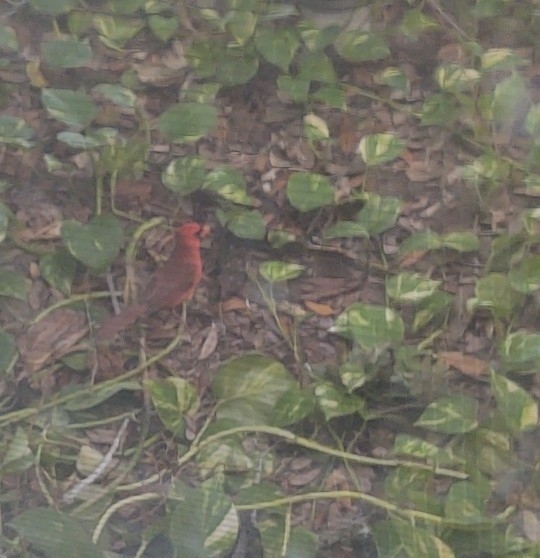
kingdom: Animalia
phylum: Chordata
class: Aves
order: Passeriformes
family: Cardinalidae
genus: Cardinalis
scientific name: Cardinalis cardinalis
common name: Northern cardinal
